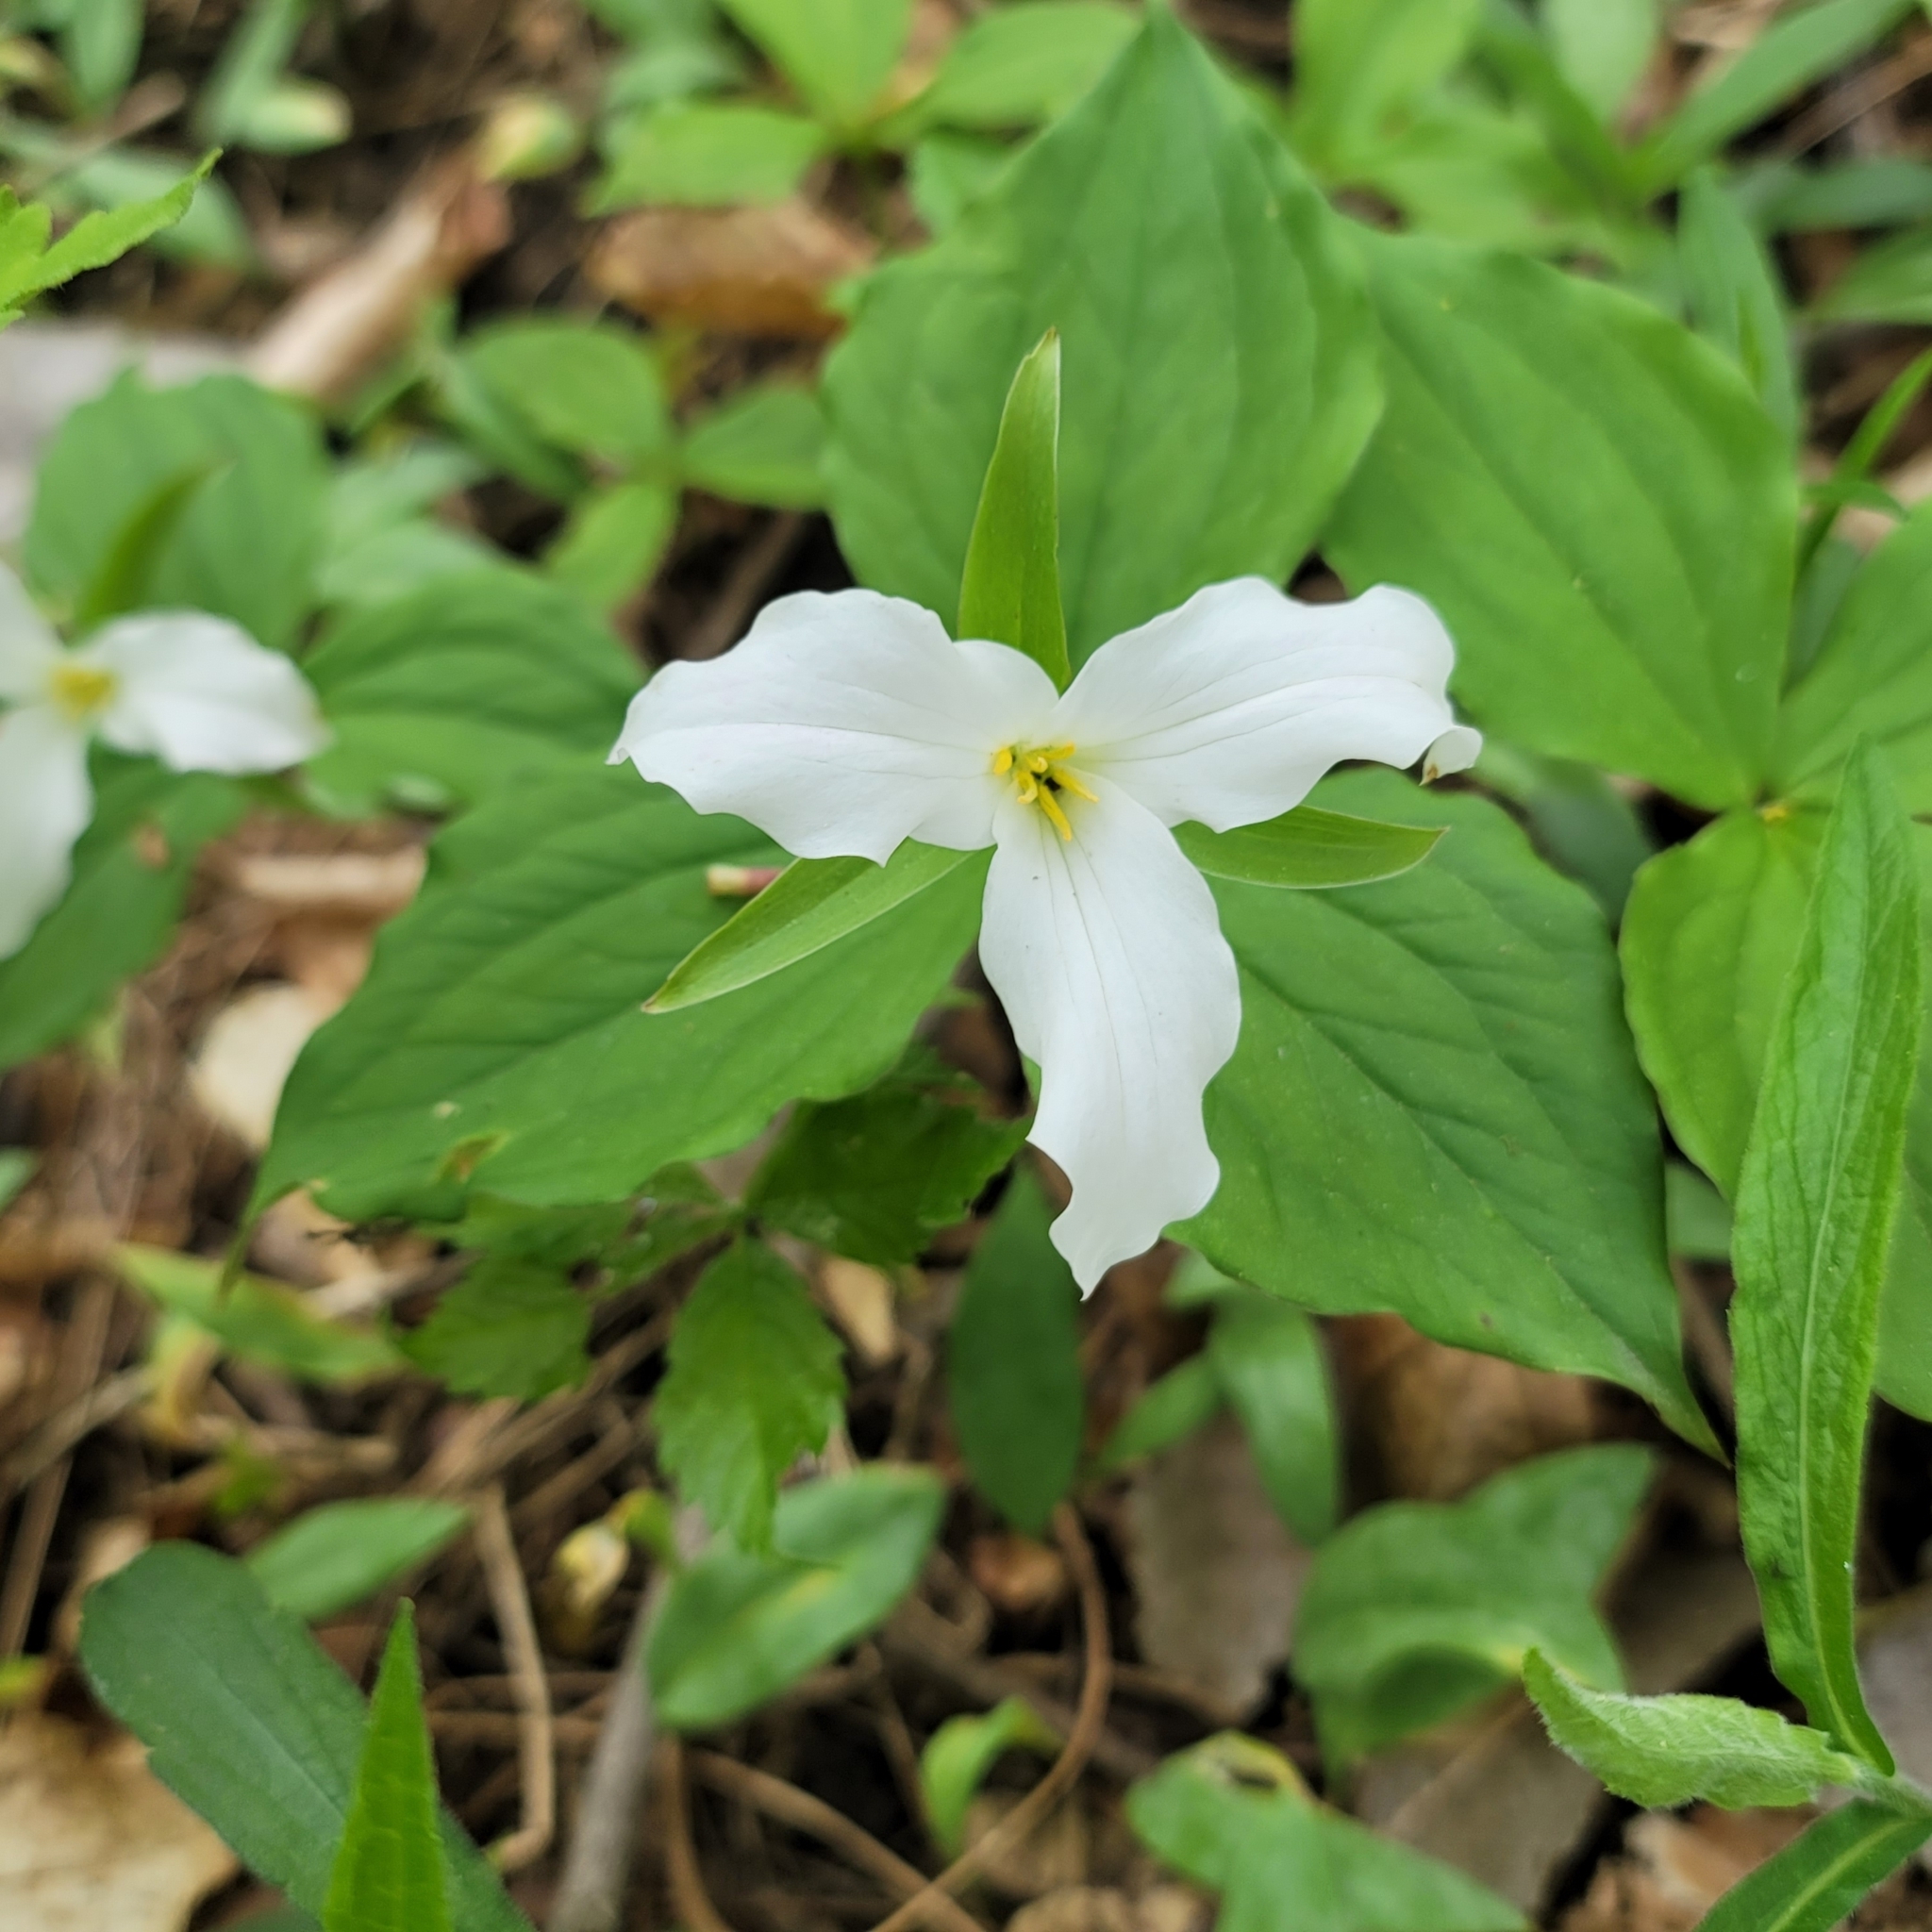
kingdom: Plantae
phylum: Tracheophyta
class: Liliopsida
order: Liliales
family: Melanthiaceae
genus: Trillium
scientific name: Trillium grandiflorum
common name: Great white trillium
